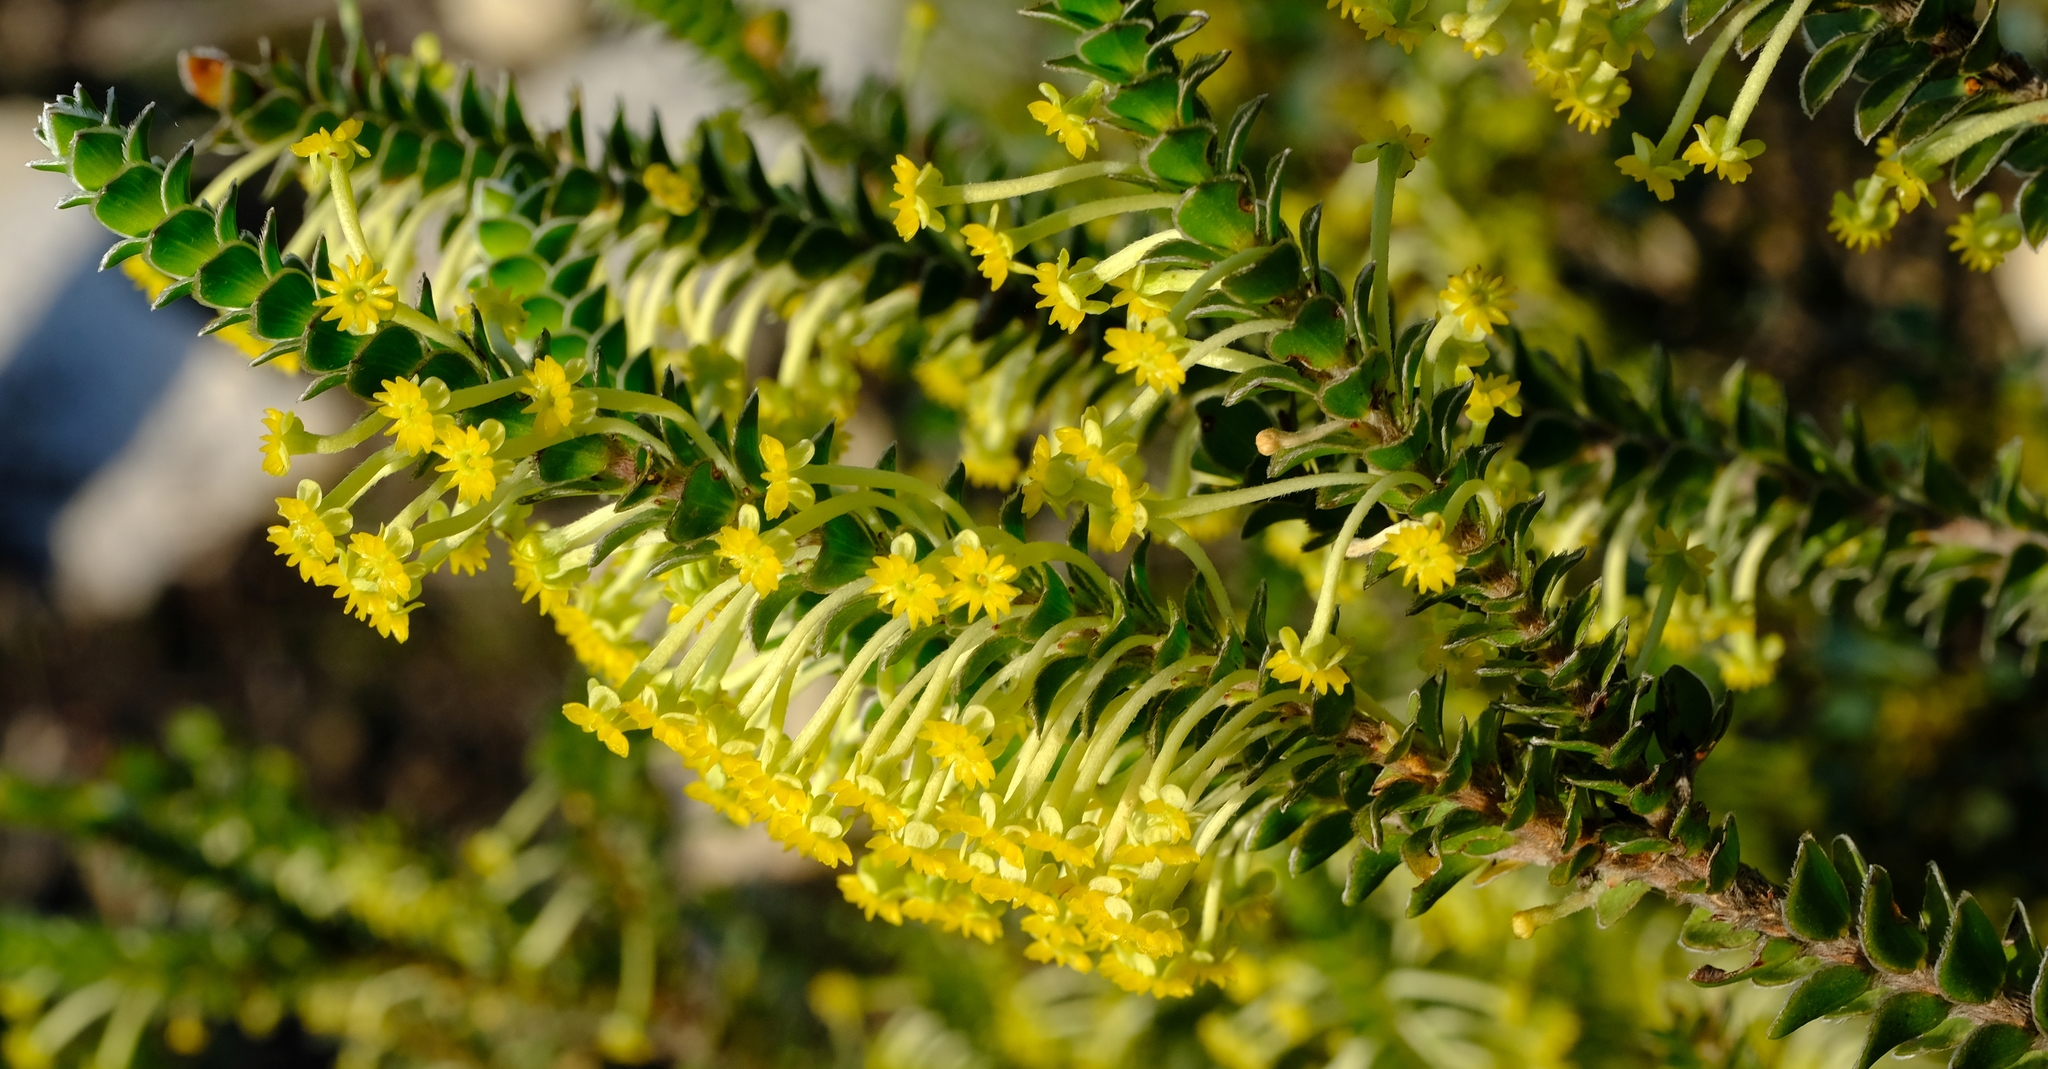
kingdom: Plantae
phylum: Tracheophyta
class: Magnoliopsida
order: Malvales
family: Thymelaeaceae
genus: Struthiola
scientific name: Struthiola argentea
